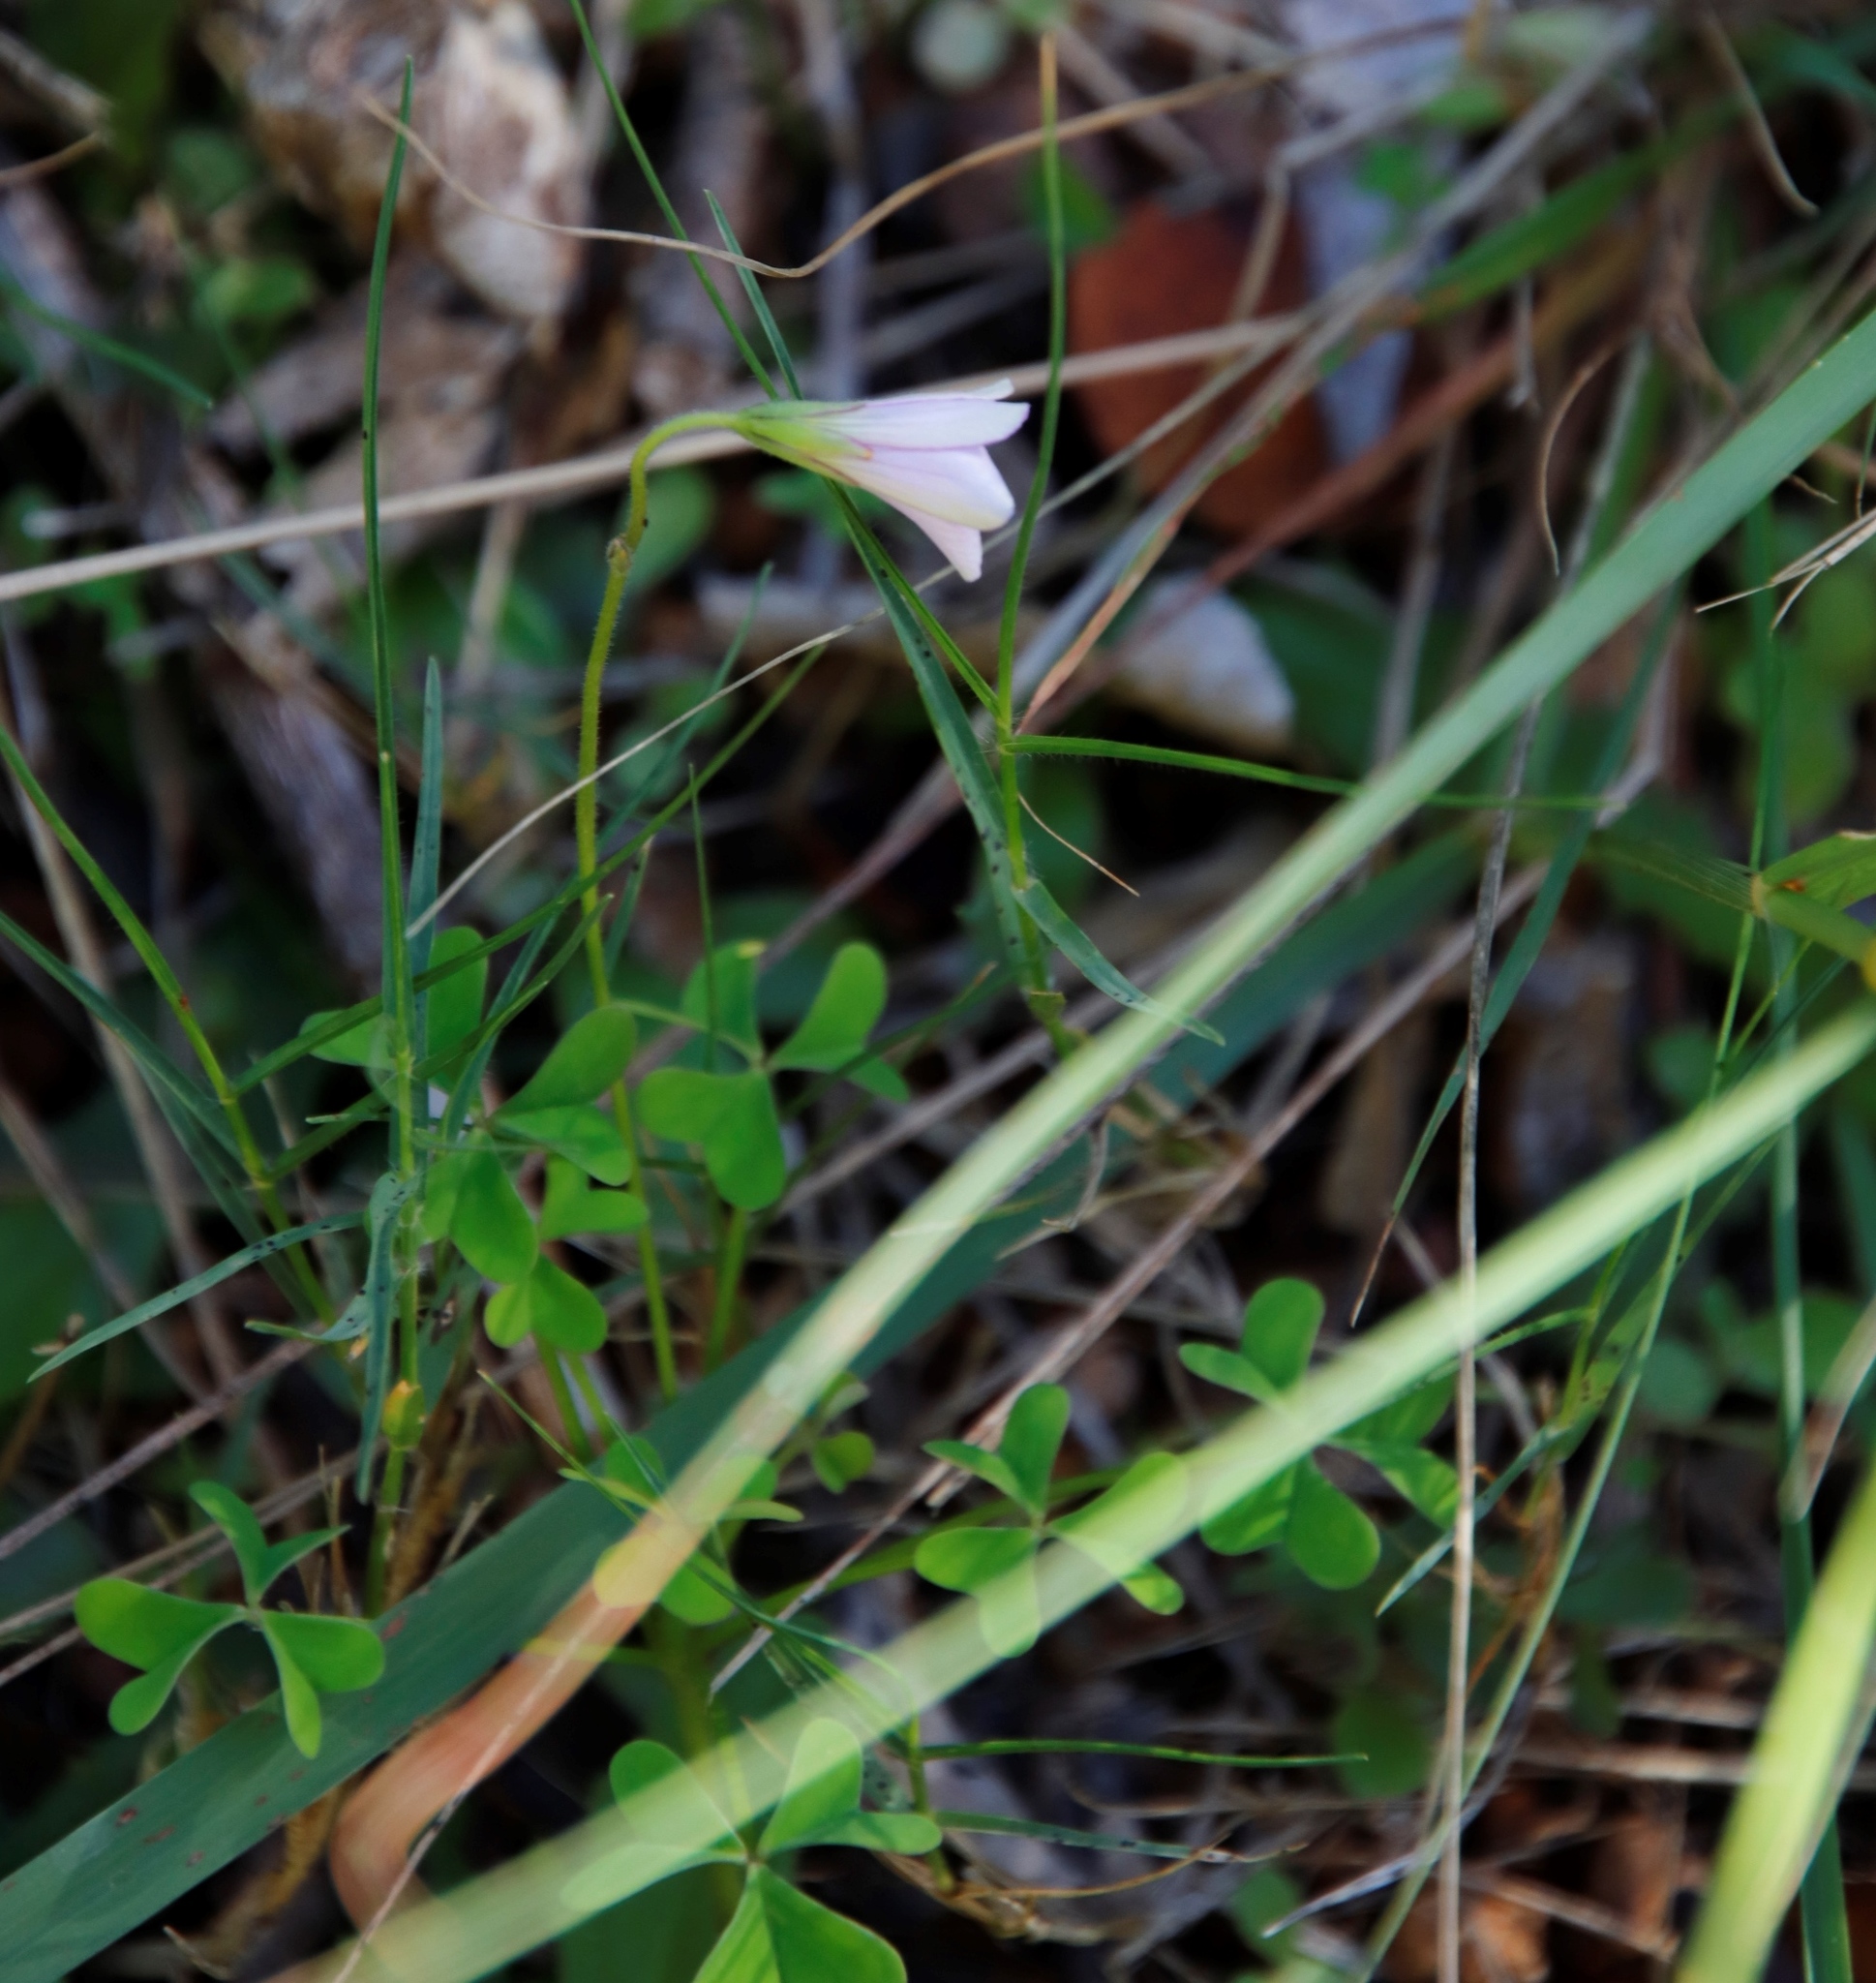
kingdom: Plantae
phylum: Tracheophyta
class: Magnoliopsida
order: Oxalidales
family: Oxalidaceae
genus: Oxalis
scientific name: Oxalis
